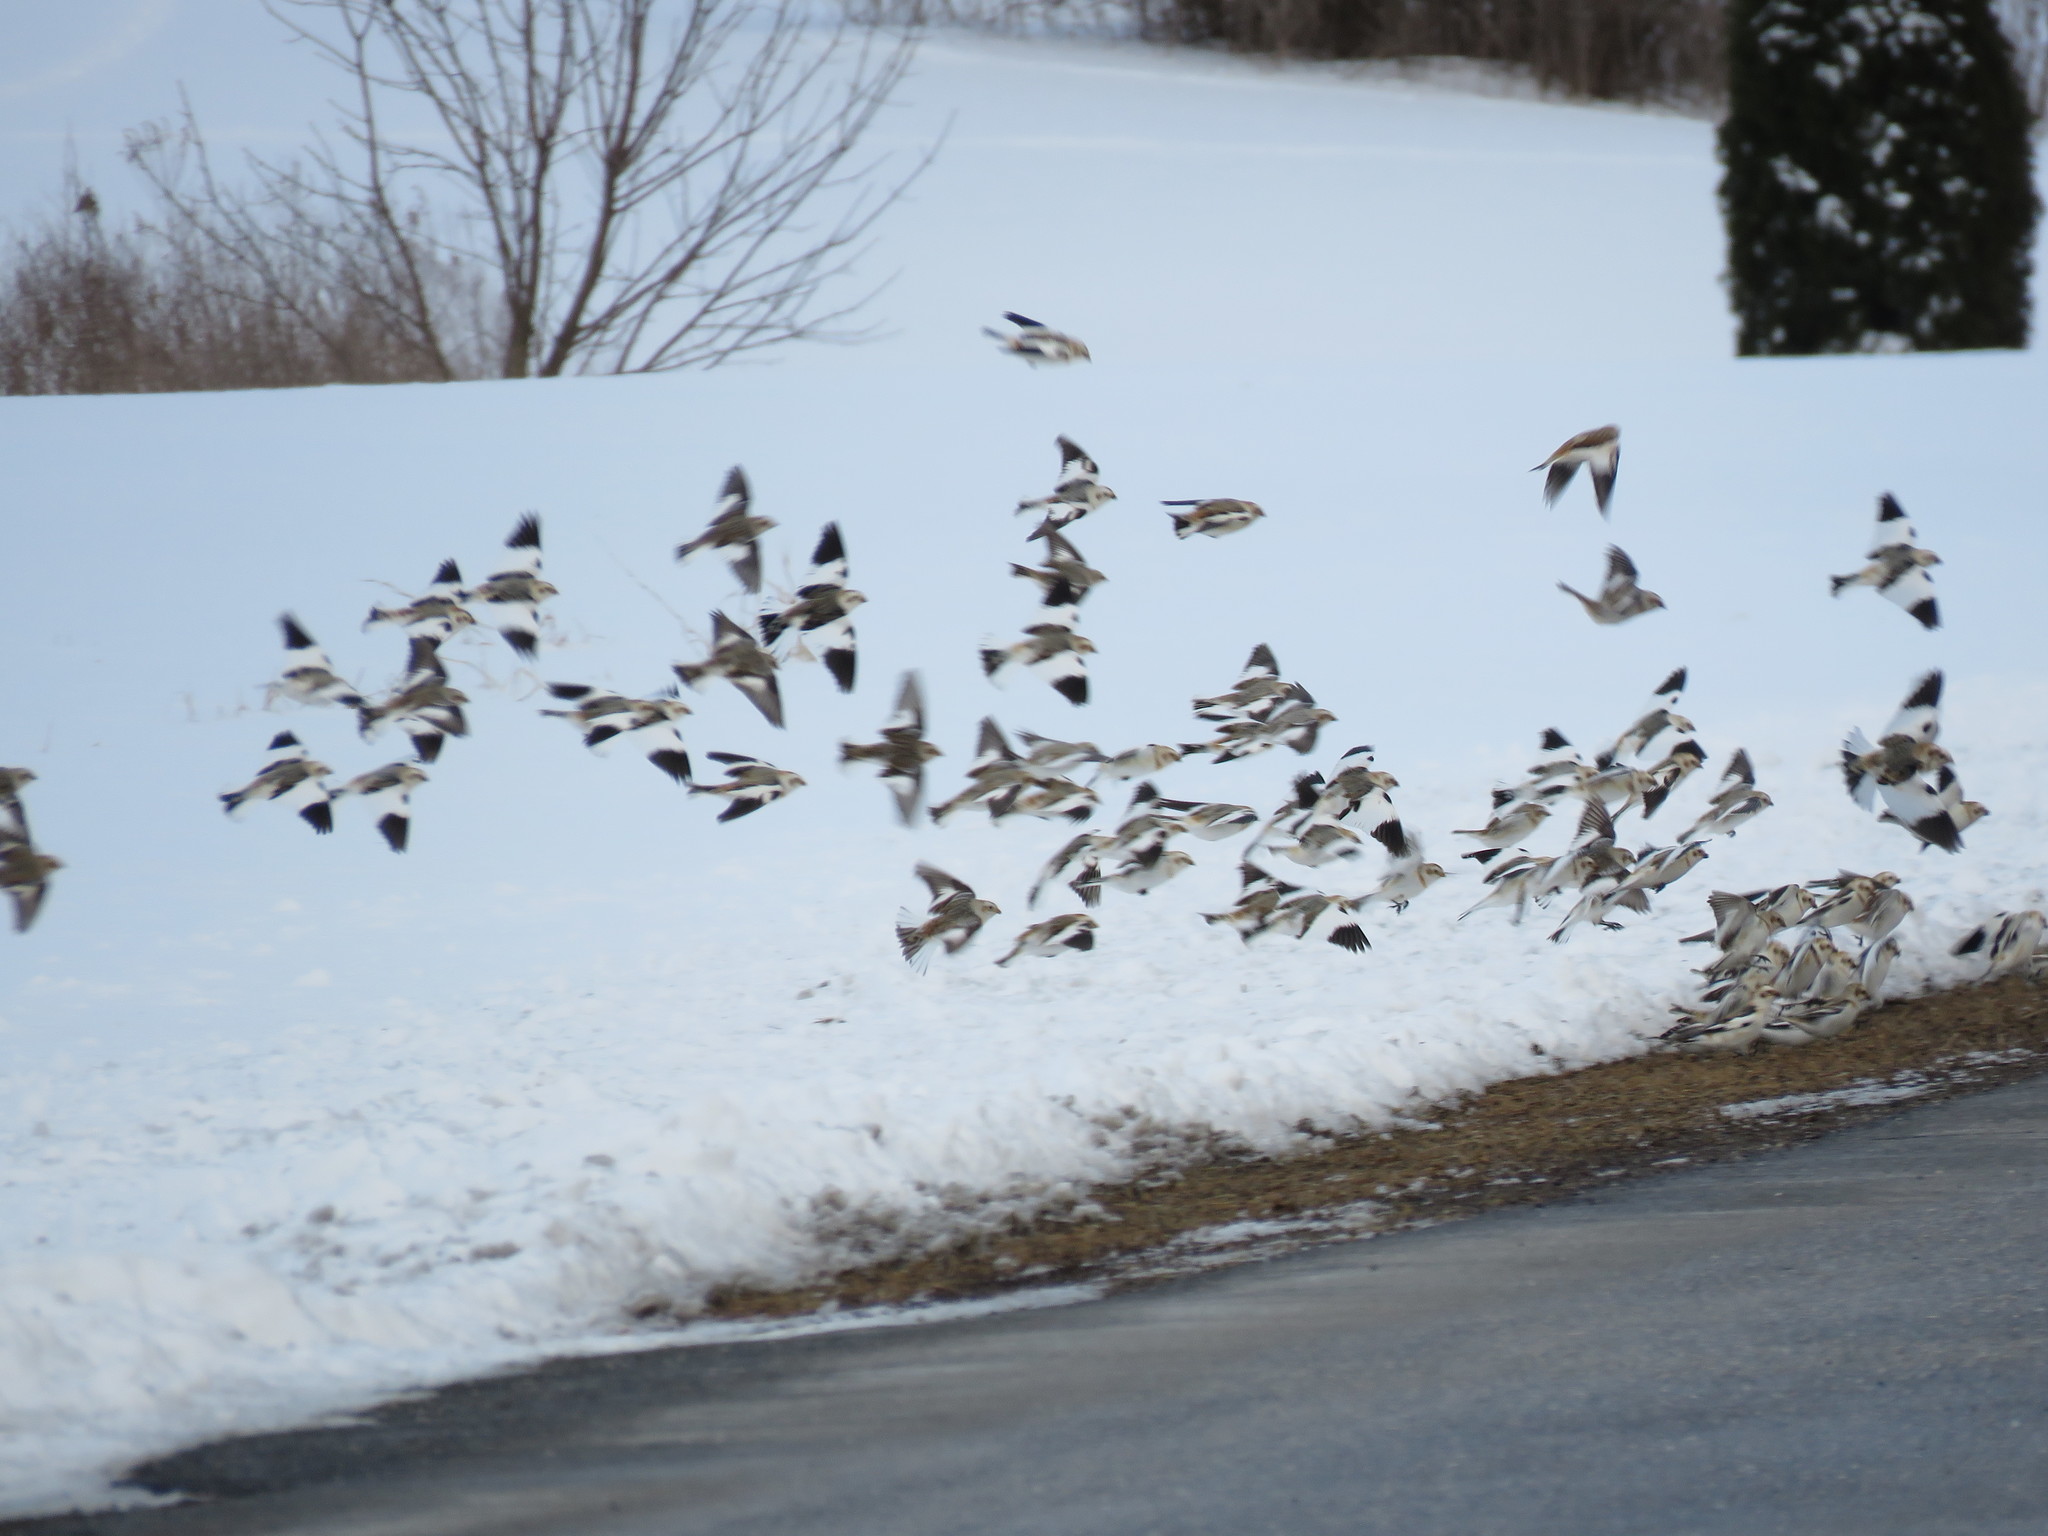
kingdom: Animalia
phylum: Chordata
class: Aves
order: Passeriformes
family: Calcariidae
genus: Plectrophenax
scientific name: Plectrophenax nivalis
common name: Snow bunting
